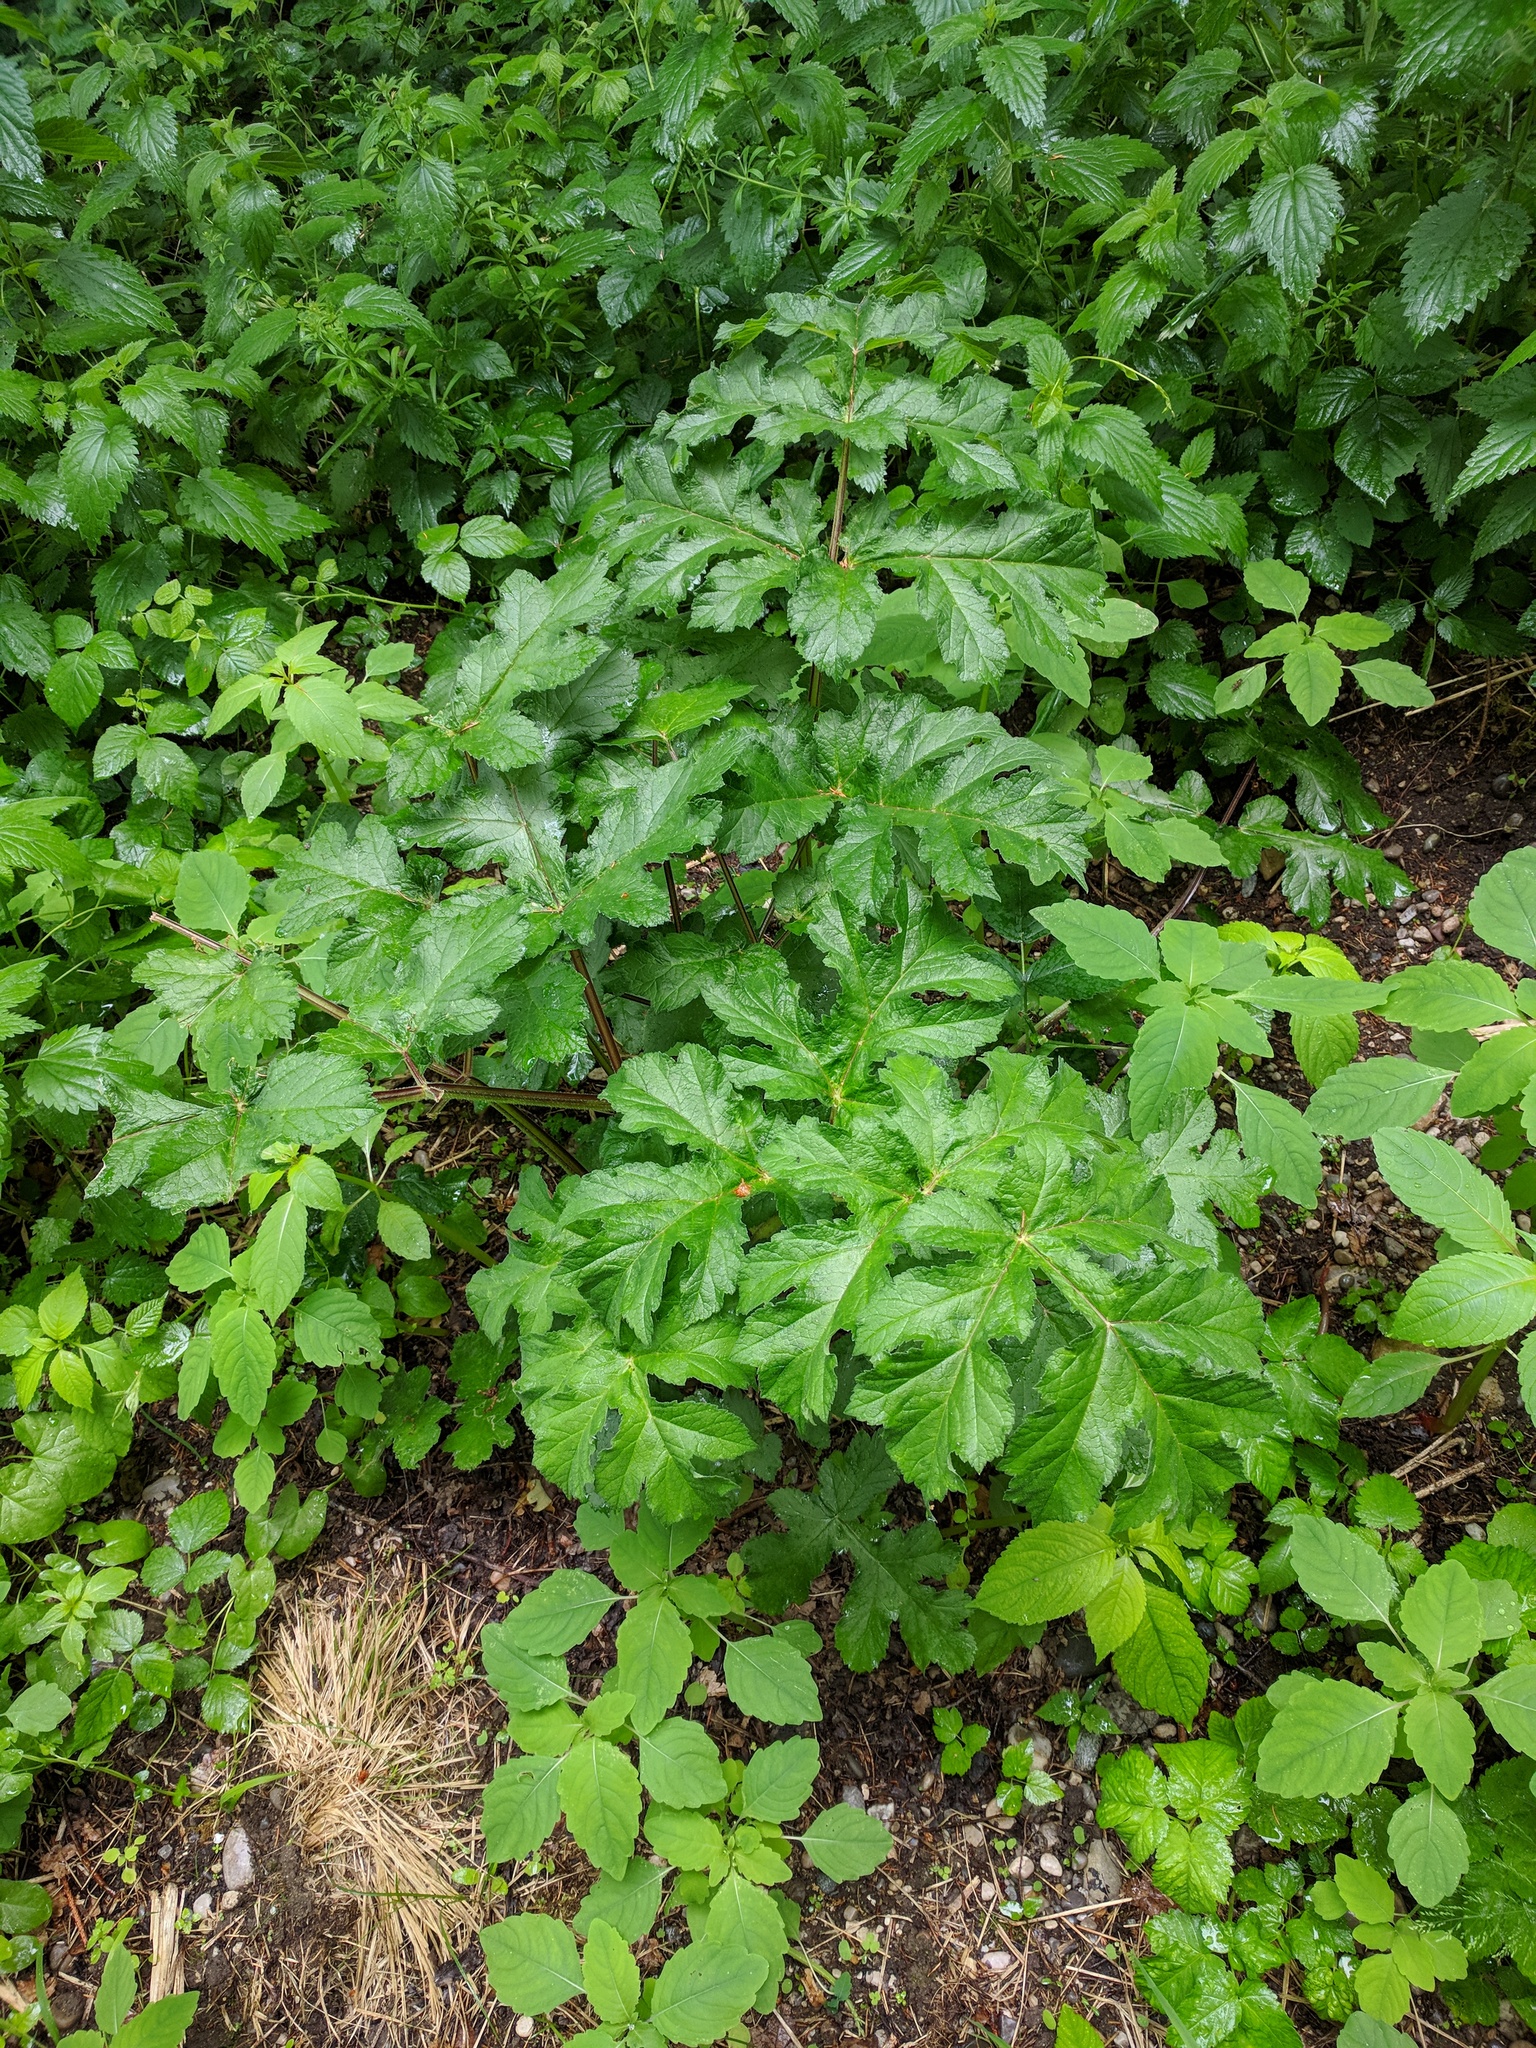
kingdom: Plantae
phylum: Tracheophyta
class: Magnoliopsida
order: Apiales
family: Apiaceae
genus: Heracleum
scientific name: Heracleum sphondylium
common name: Hogweed
